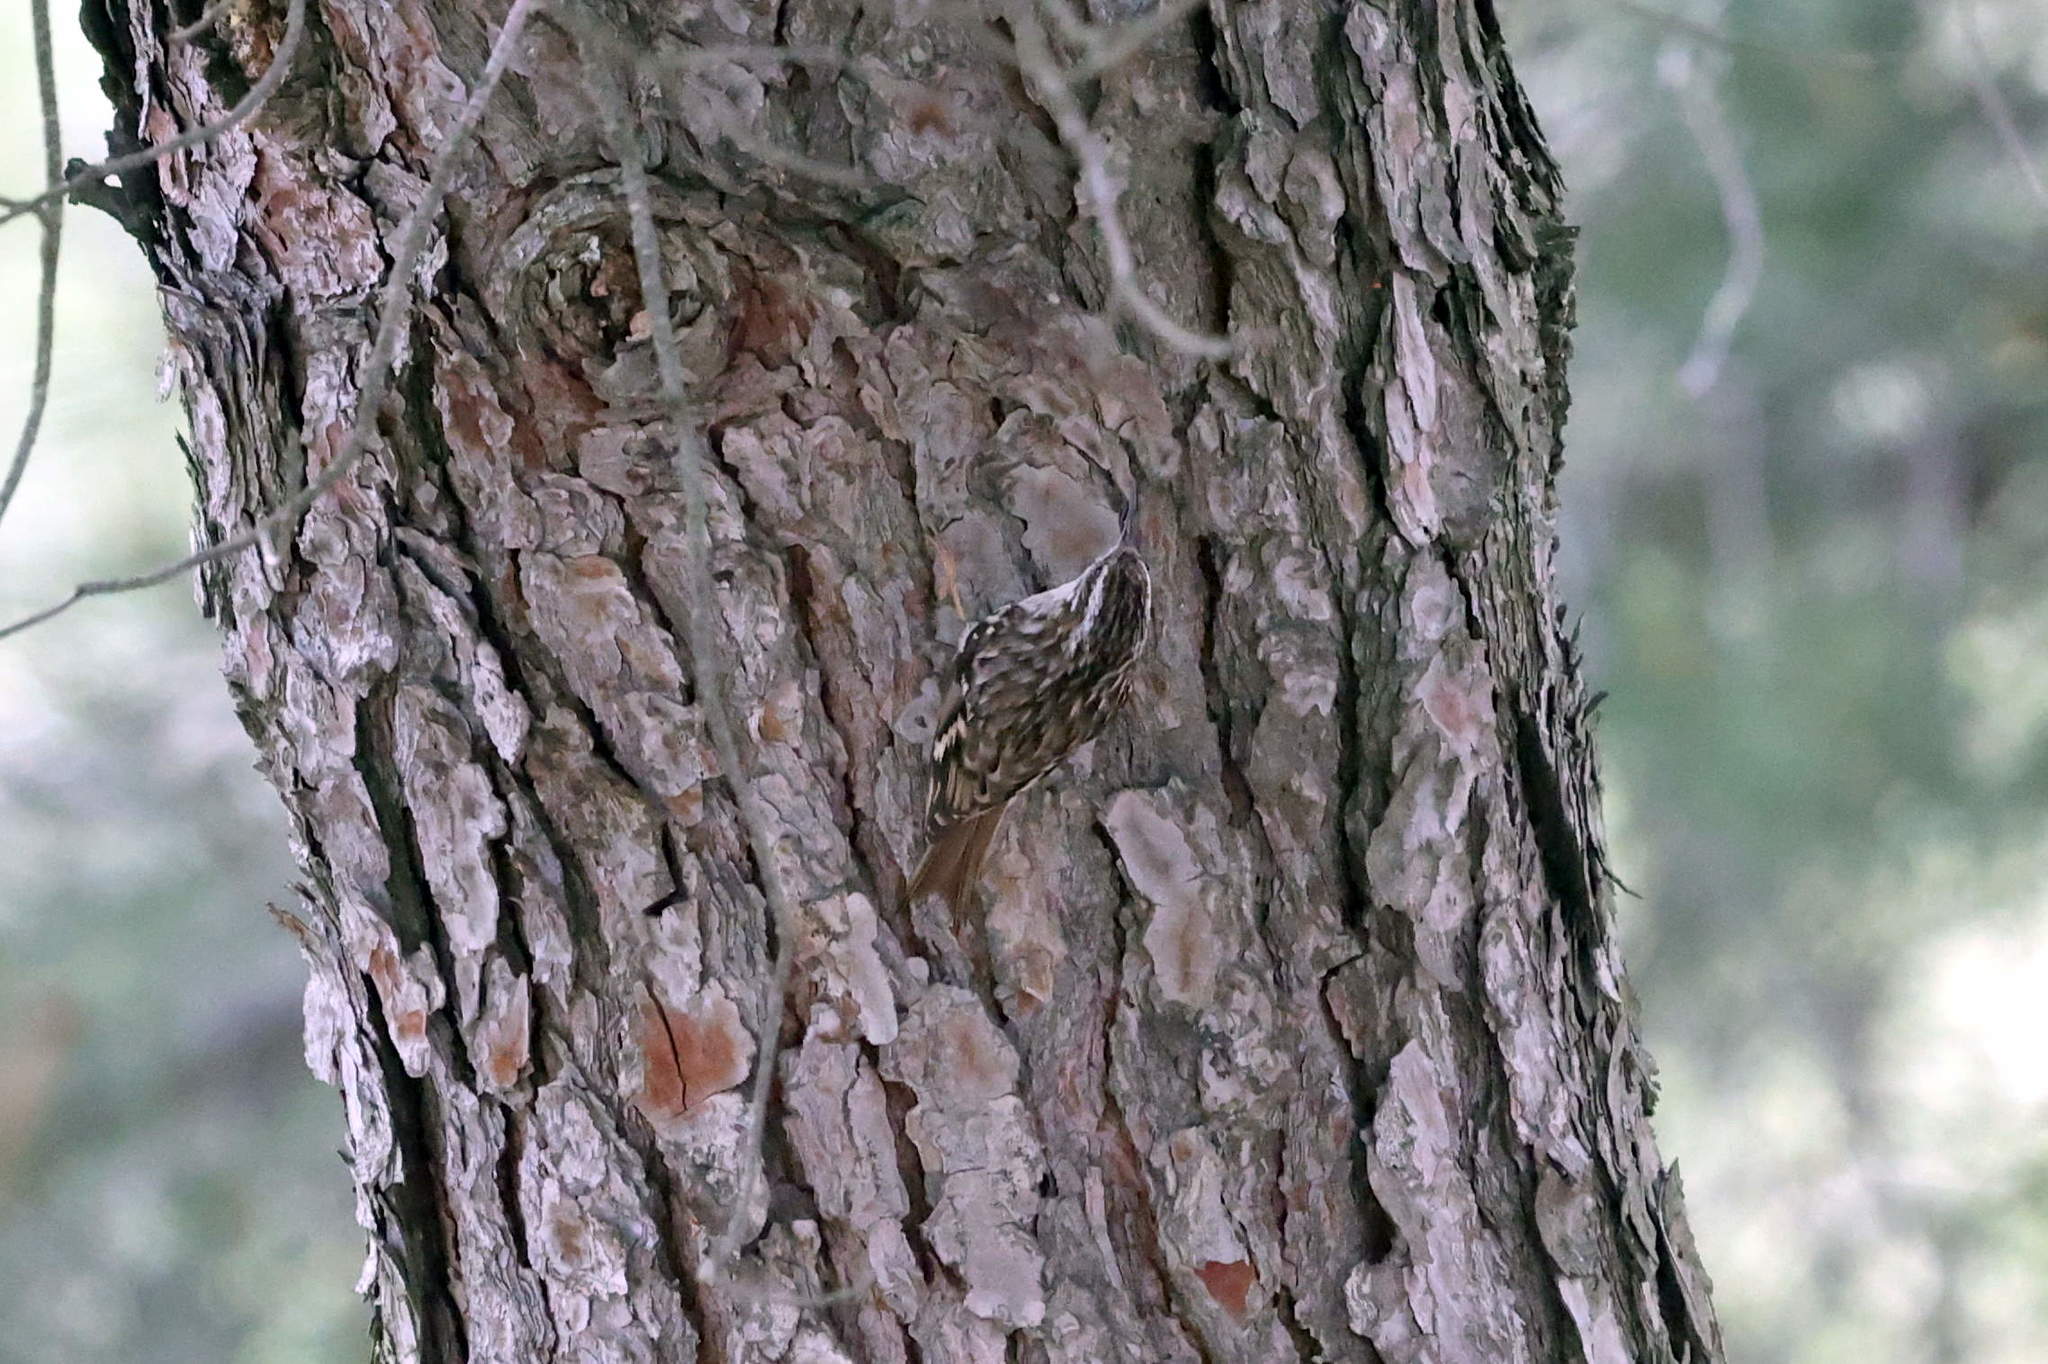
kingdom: Animalia
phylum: Chordata
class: Aves
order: Passeriformes
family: Certhiidae
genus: Certhia
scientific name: Certhia brachydactyla
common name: Short-toed treecreeper
